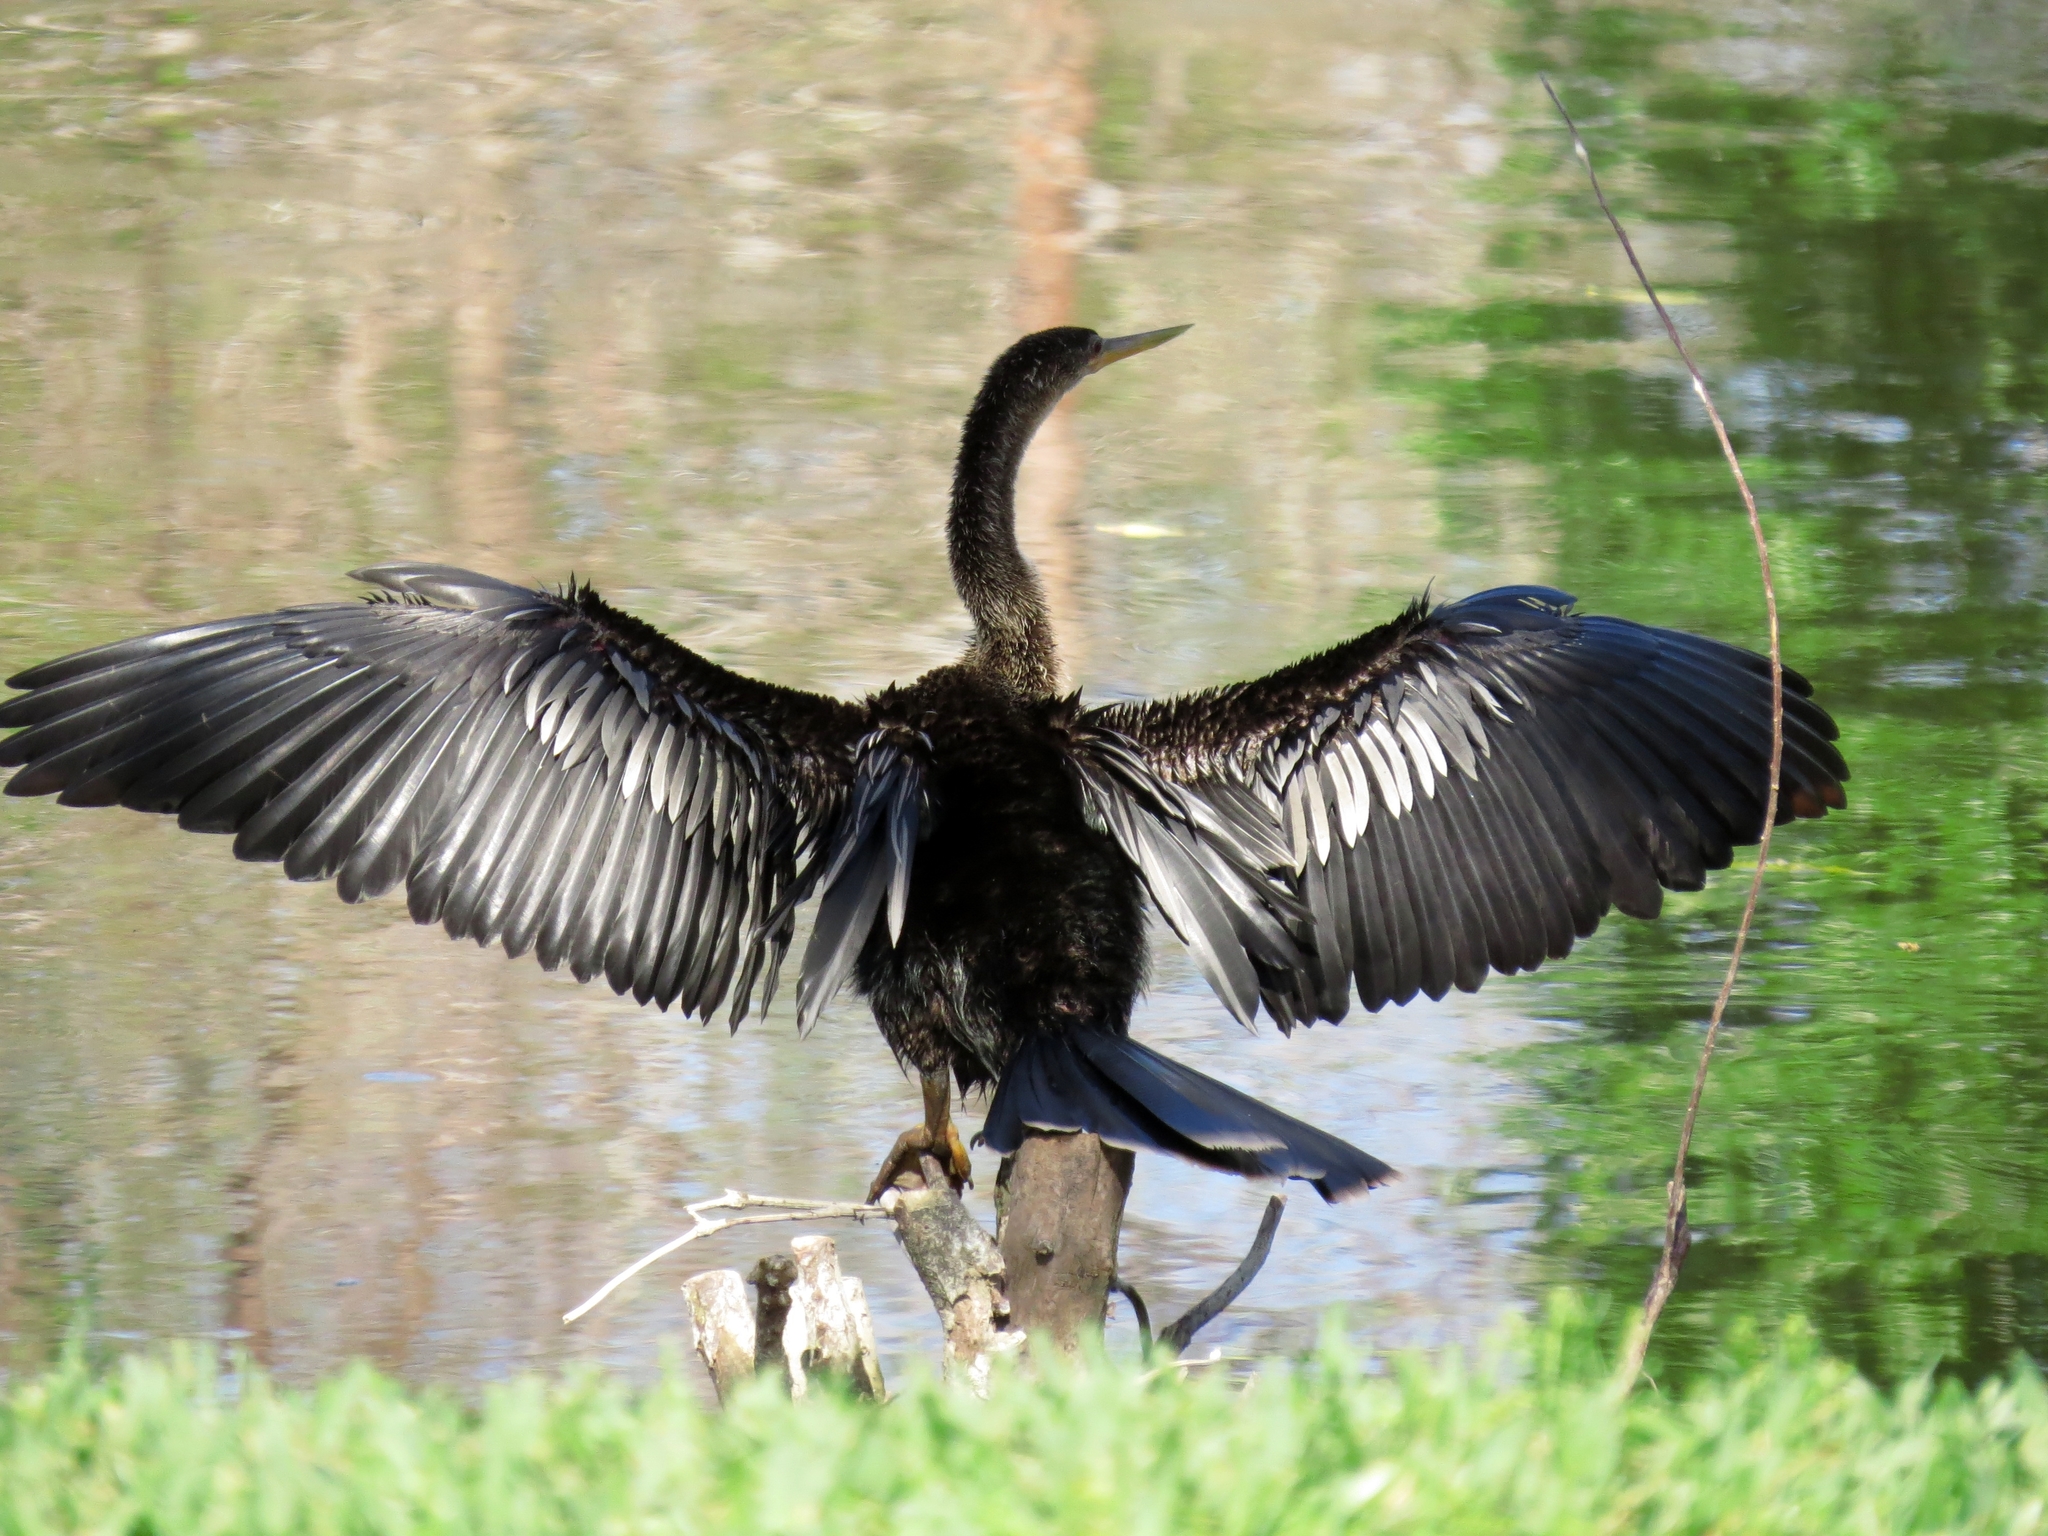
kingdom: Animalia
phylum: Chordata
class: Aves
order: Suliformes
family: Anhingidae
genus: Anhinga
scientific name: Anhinga anhinga
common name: Anhinga
